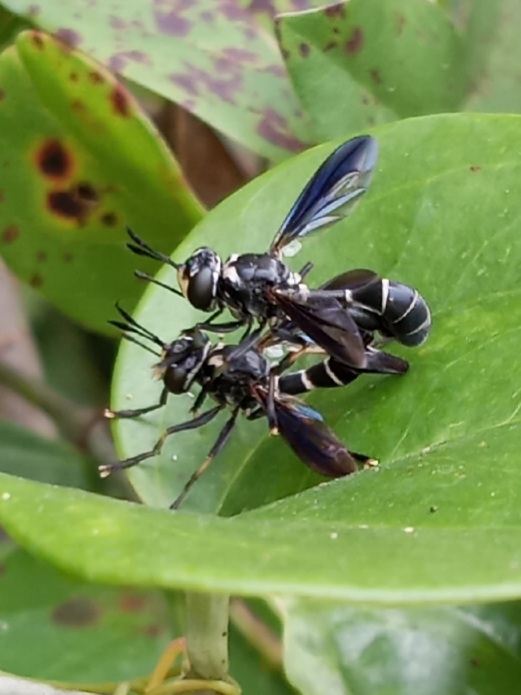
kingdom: Animalia
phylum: Arthropoda
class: Insecta
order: Diptera
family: Conopidae
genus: Physoconops
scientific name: Physoconops bulbirostris
